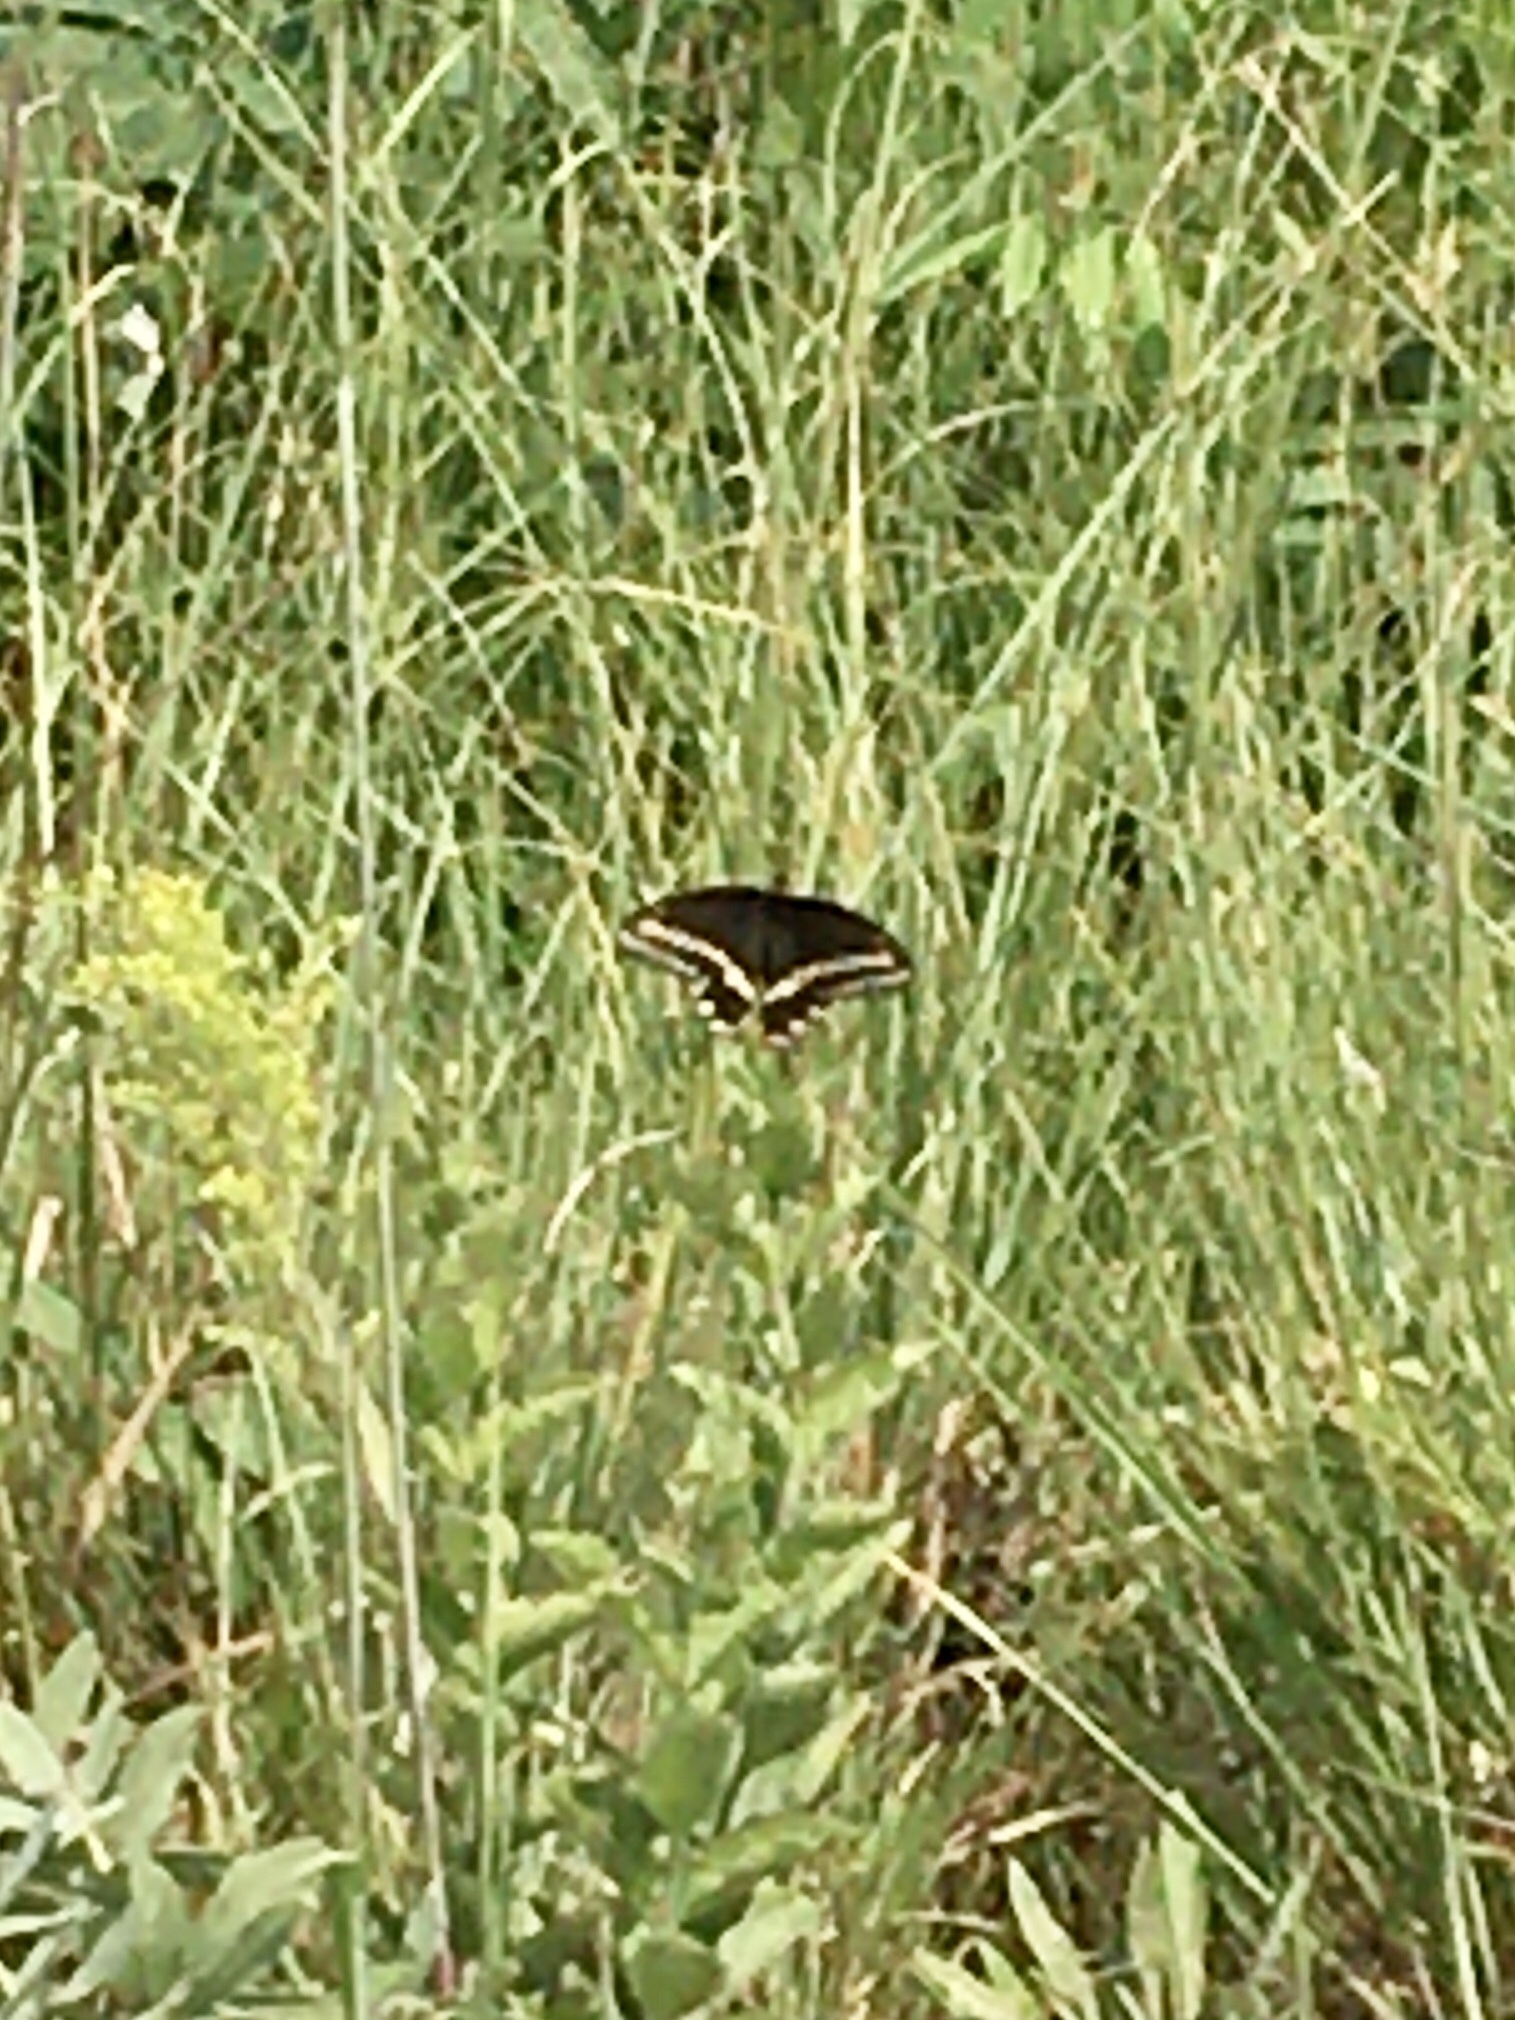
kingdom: Animalia
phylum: Arthropoda
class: Insecta
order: Lepidoptera
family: Papilionidae
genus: Papilio
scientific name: Papilio polyxenes
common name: Black swallowtail
